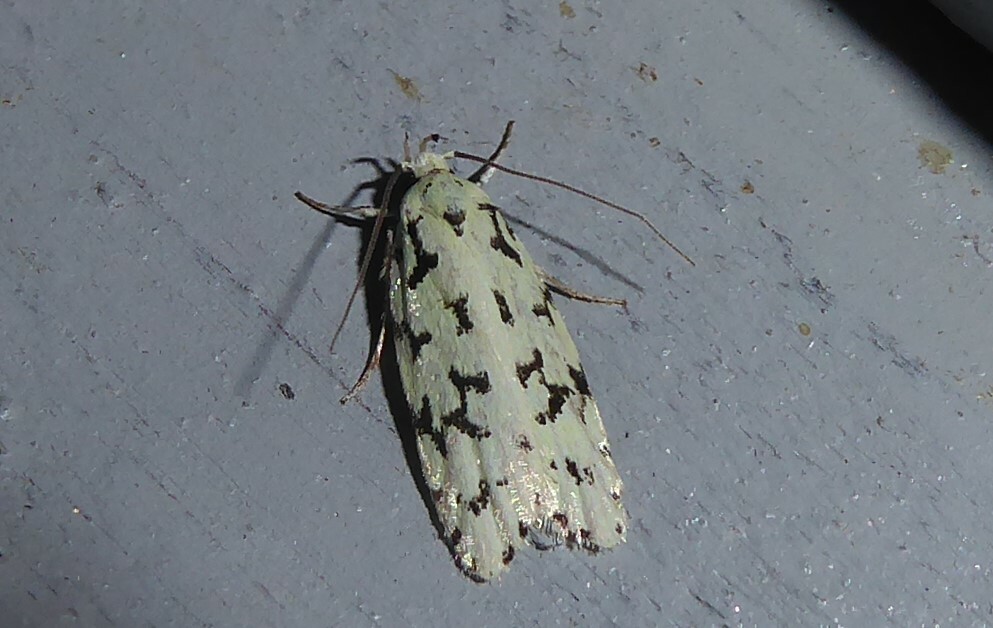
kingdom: Animalia
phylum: Arthropoda
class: Insecta
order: Lepidoptera
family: Oecophoridae
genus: Izatha
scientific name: Izatha huttoni
